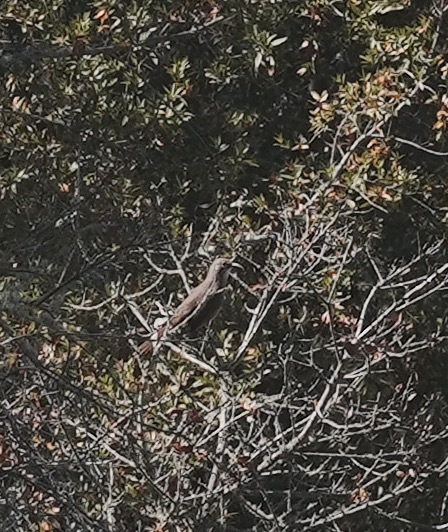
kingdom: Animalia
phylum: Chordata
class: Aves
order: Passeriformes
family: Mimidae
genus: Toxostoma
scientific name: Toxostoma redivivum
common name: California thrasher
